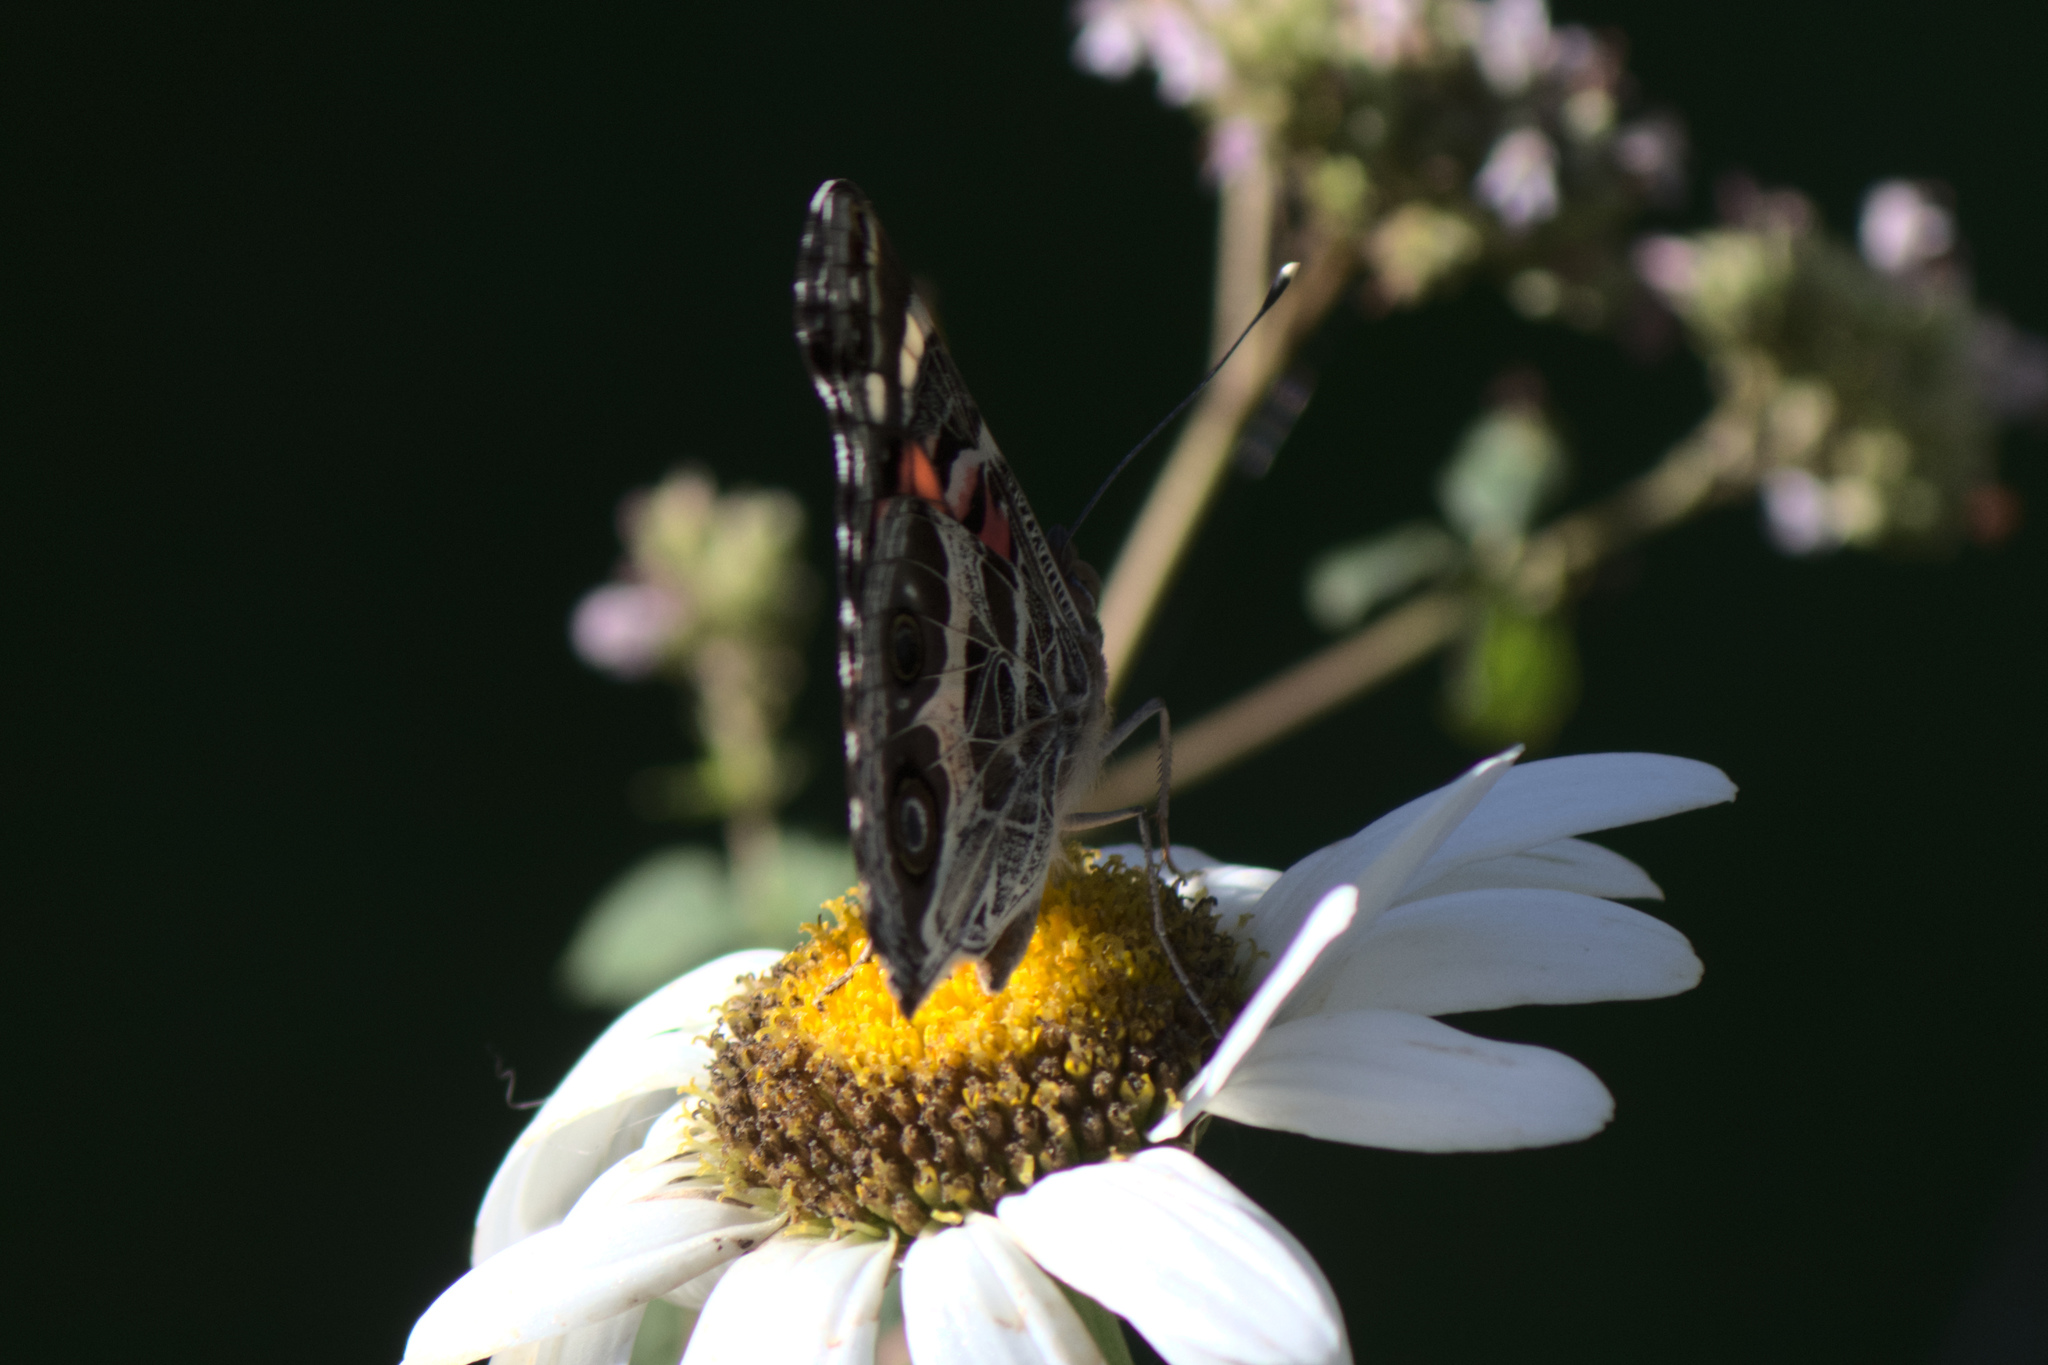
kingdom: Animalia
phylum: Arthropoda
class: Insecta
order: Lepidoptera
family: Nymphalidae
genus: Vanessa
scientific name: Vanessa virginiensis
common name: American lady
